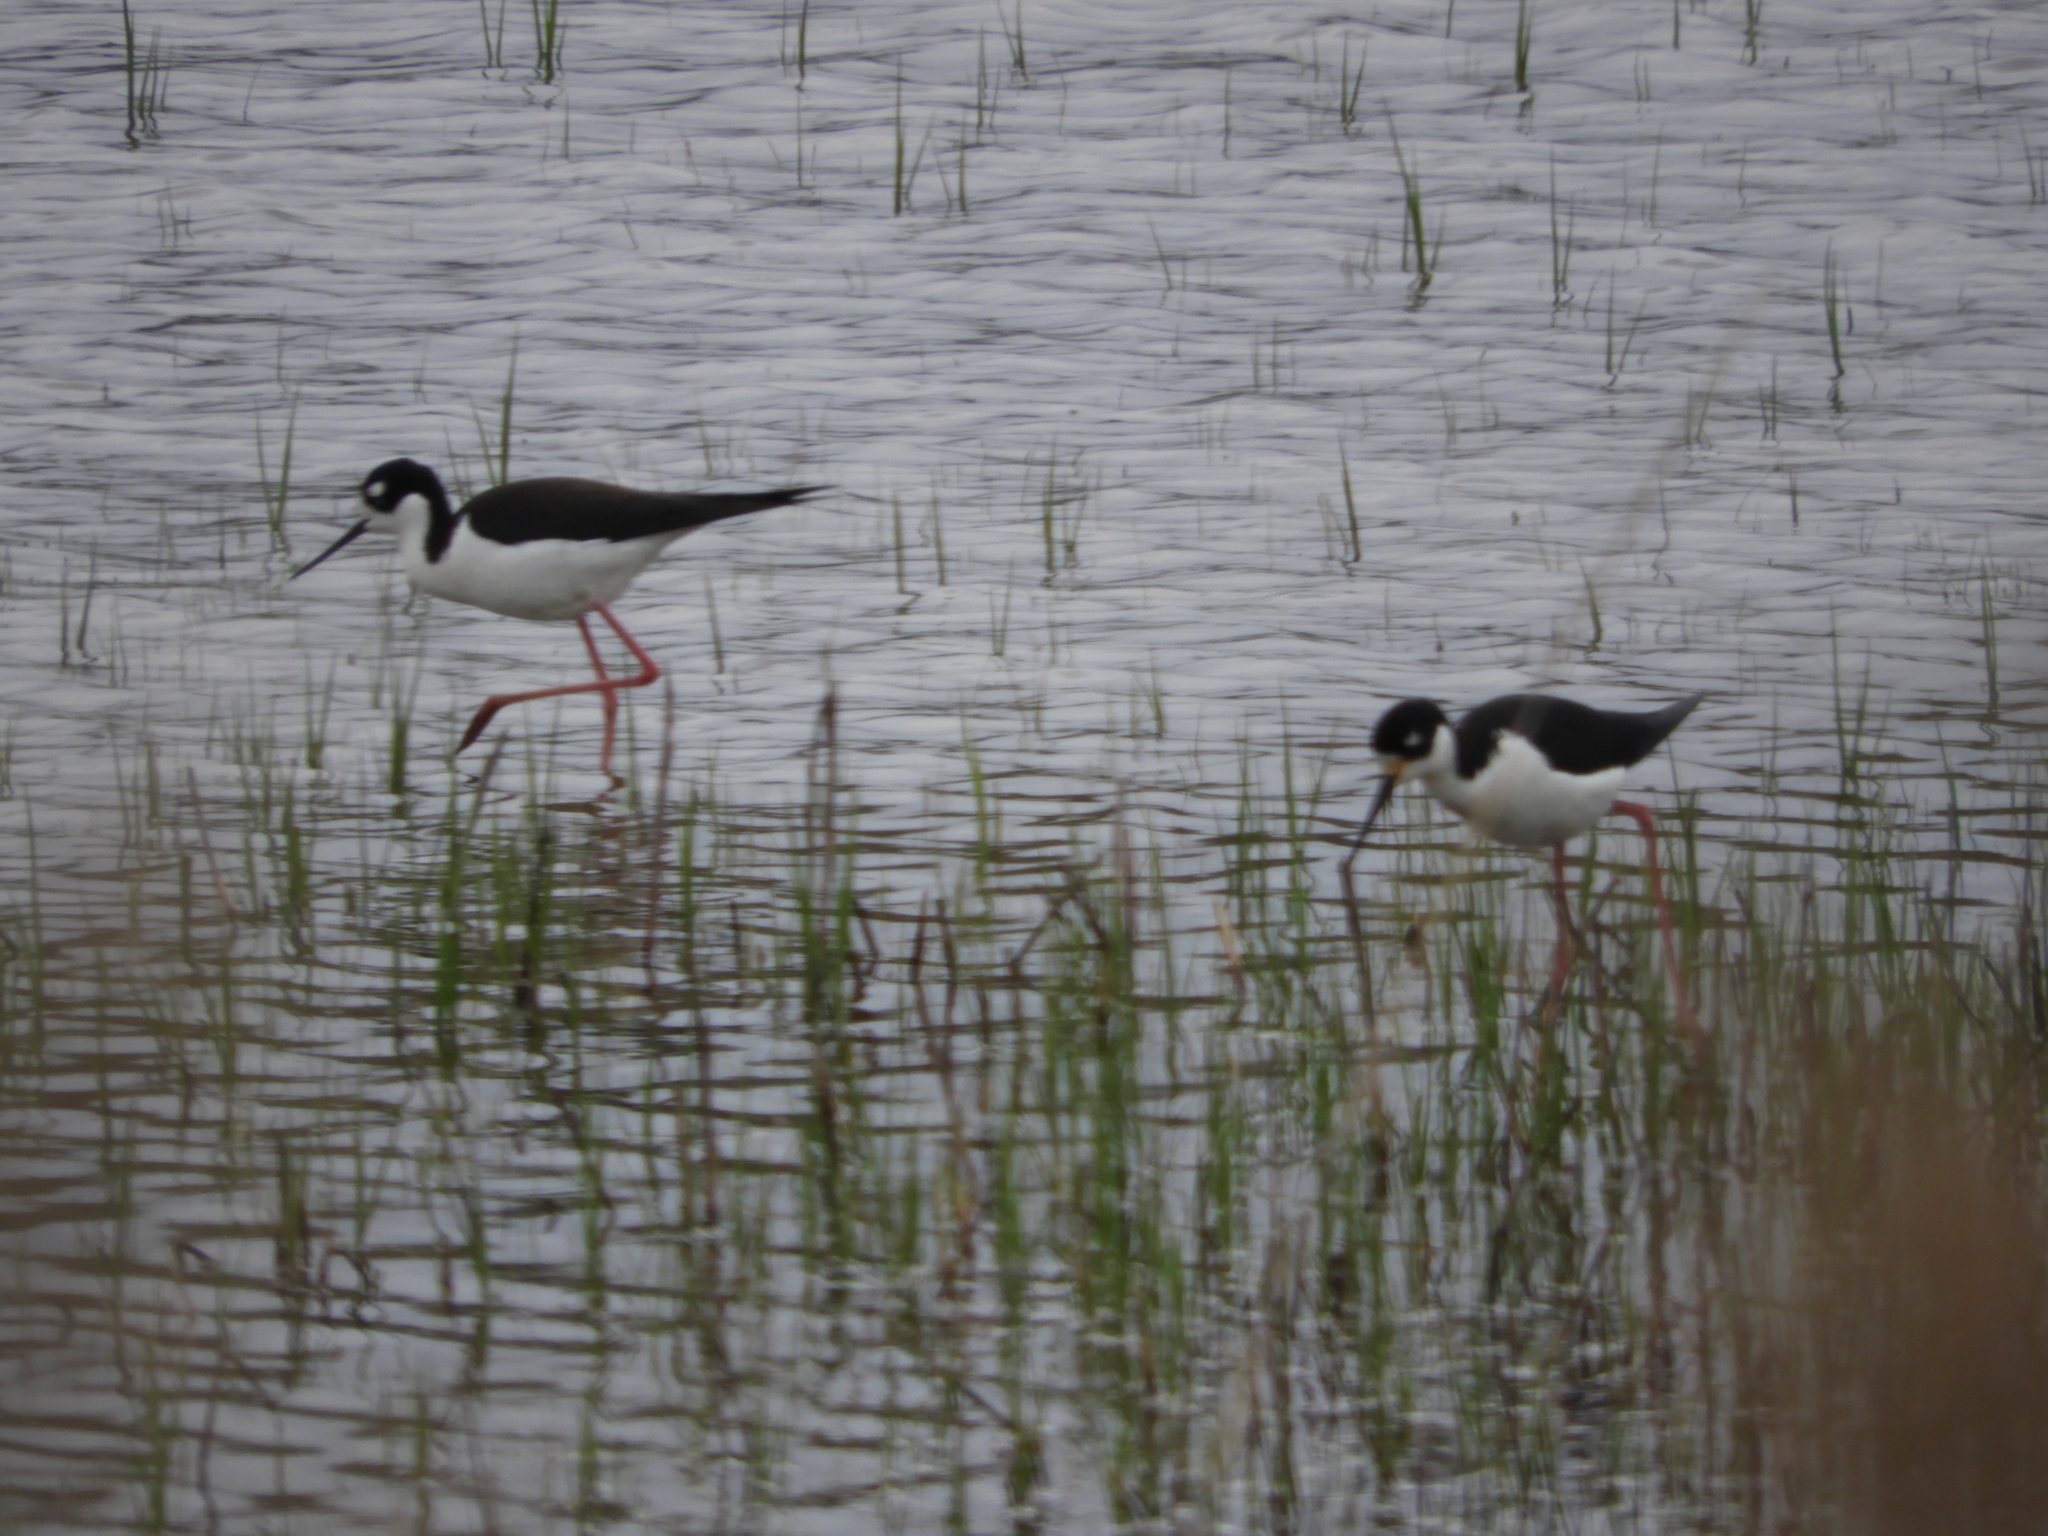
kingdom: Animalia
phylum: Chordata
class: Aves
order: Charadriiformes
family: Recurvirostridae
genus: Himantopus
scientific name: Himantopus mexicanus
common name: Black-necked stilt
